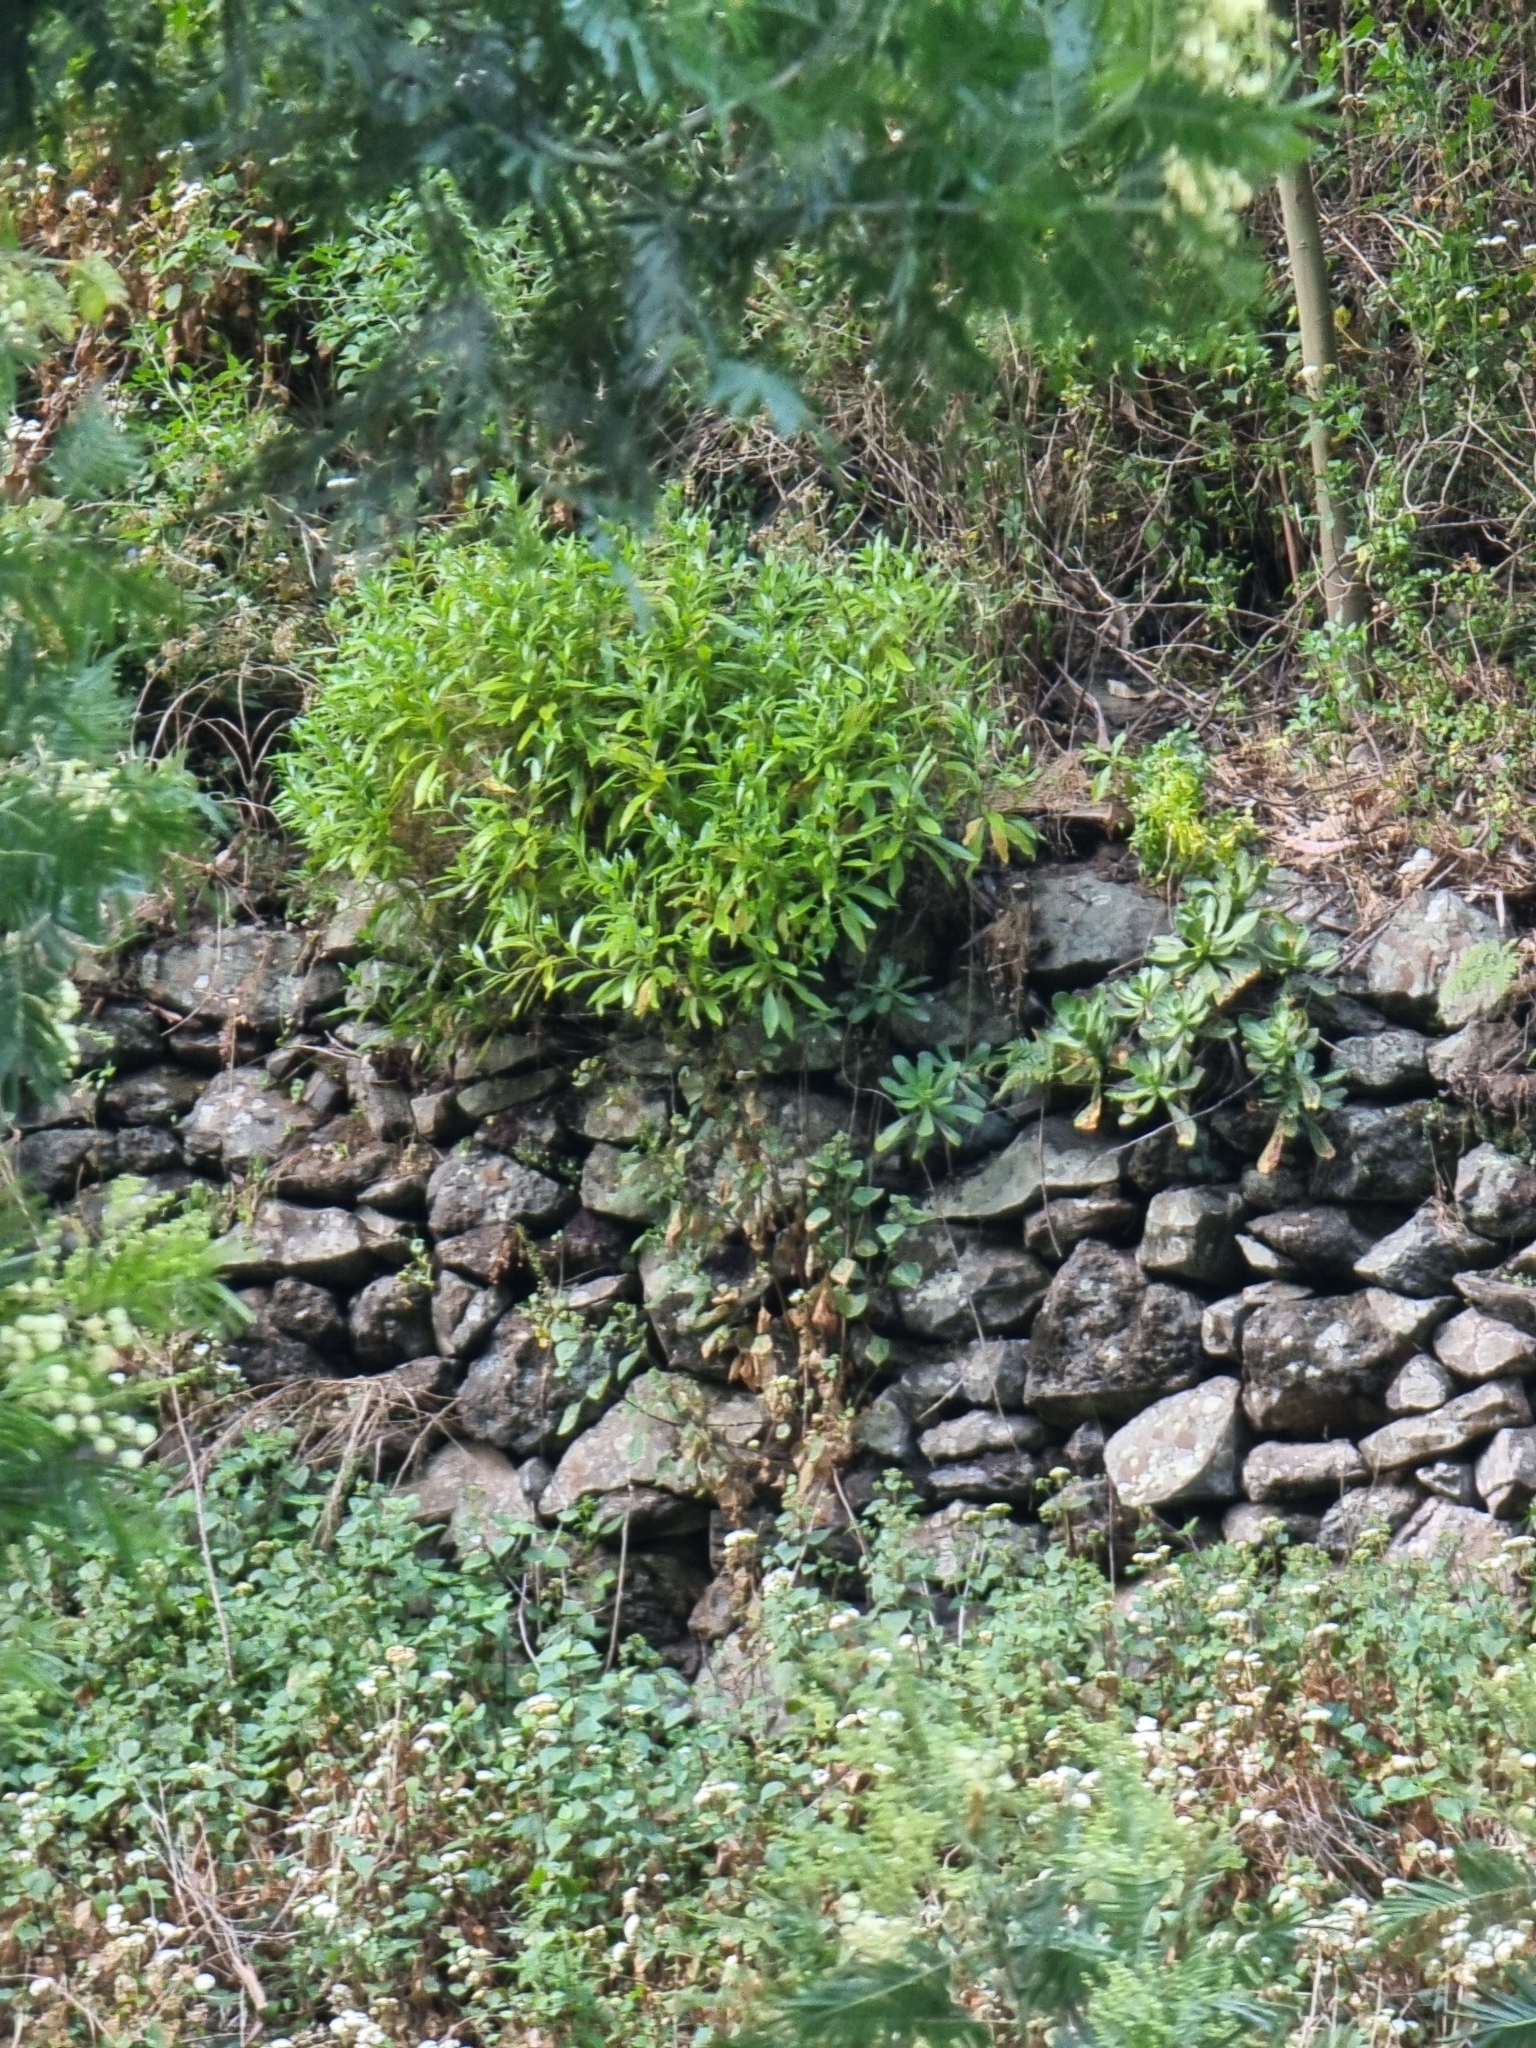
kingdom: Plantae
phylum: Tracheophyta
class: Magnoliopsida
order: Gentianales
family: Rubiaceae
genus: Phyllis
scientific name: Phyllis nobla
